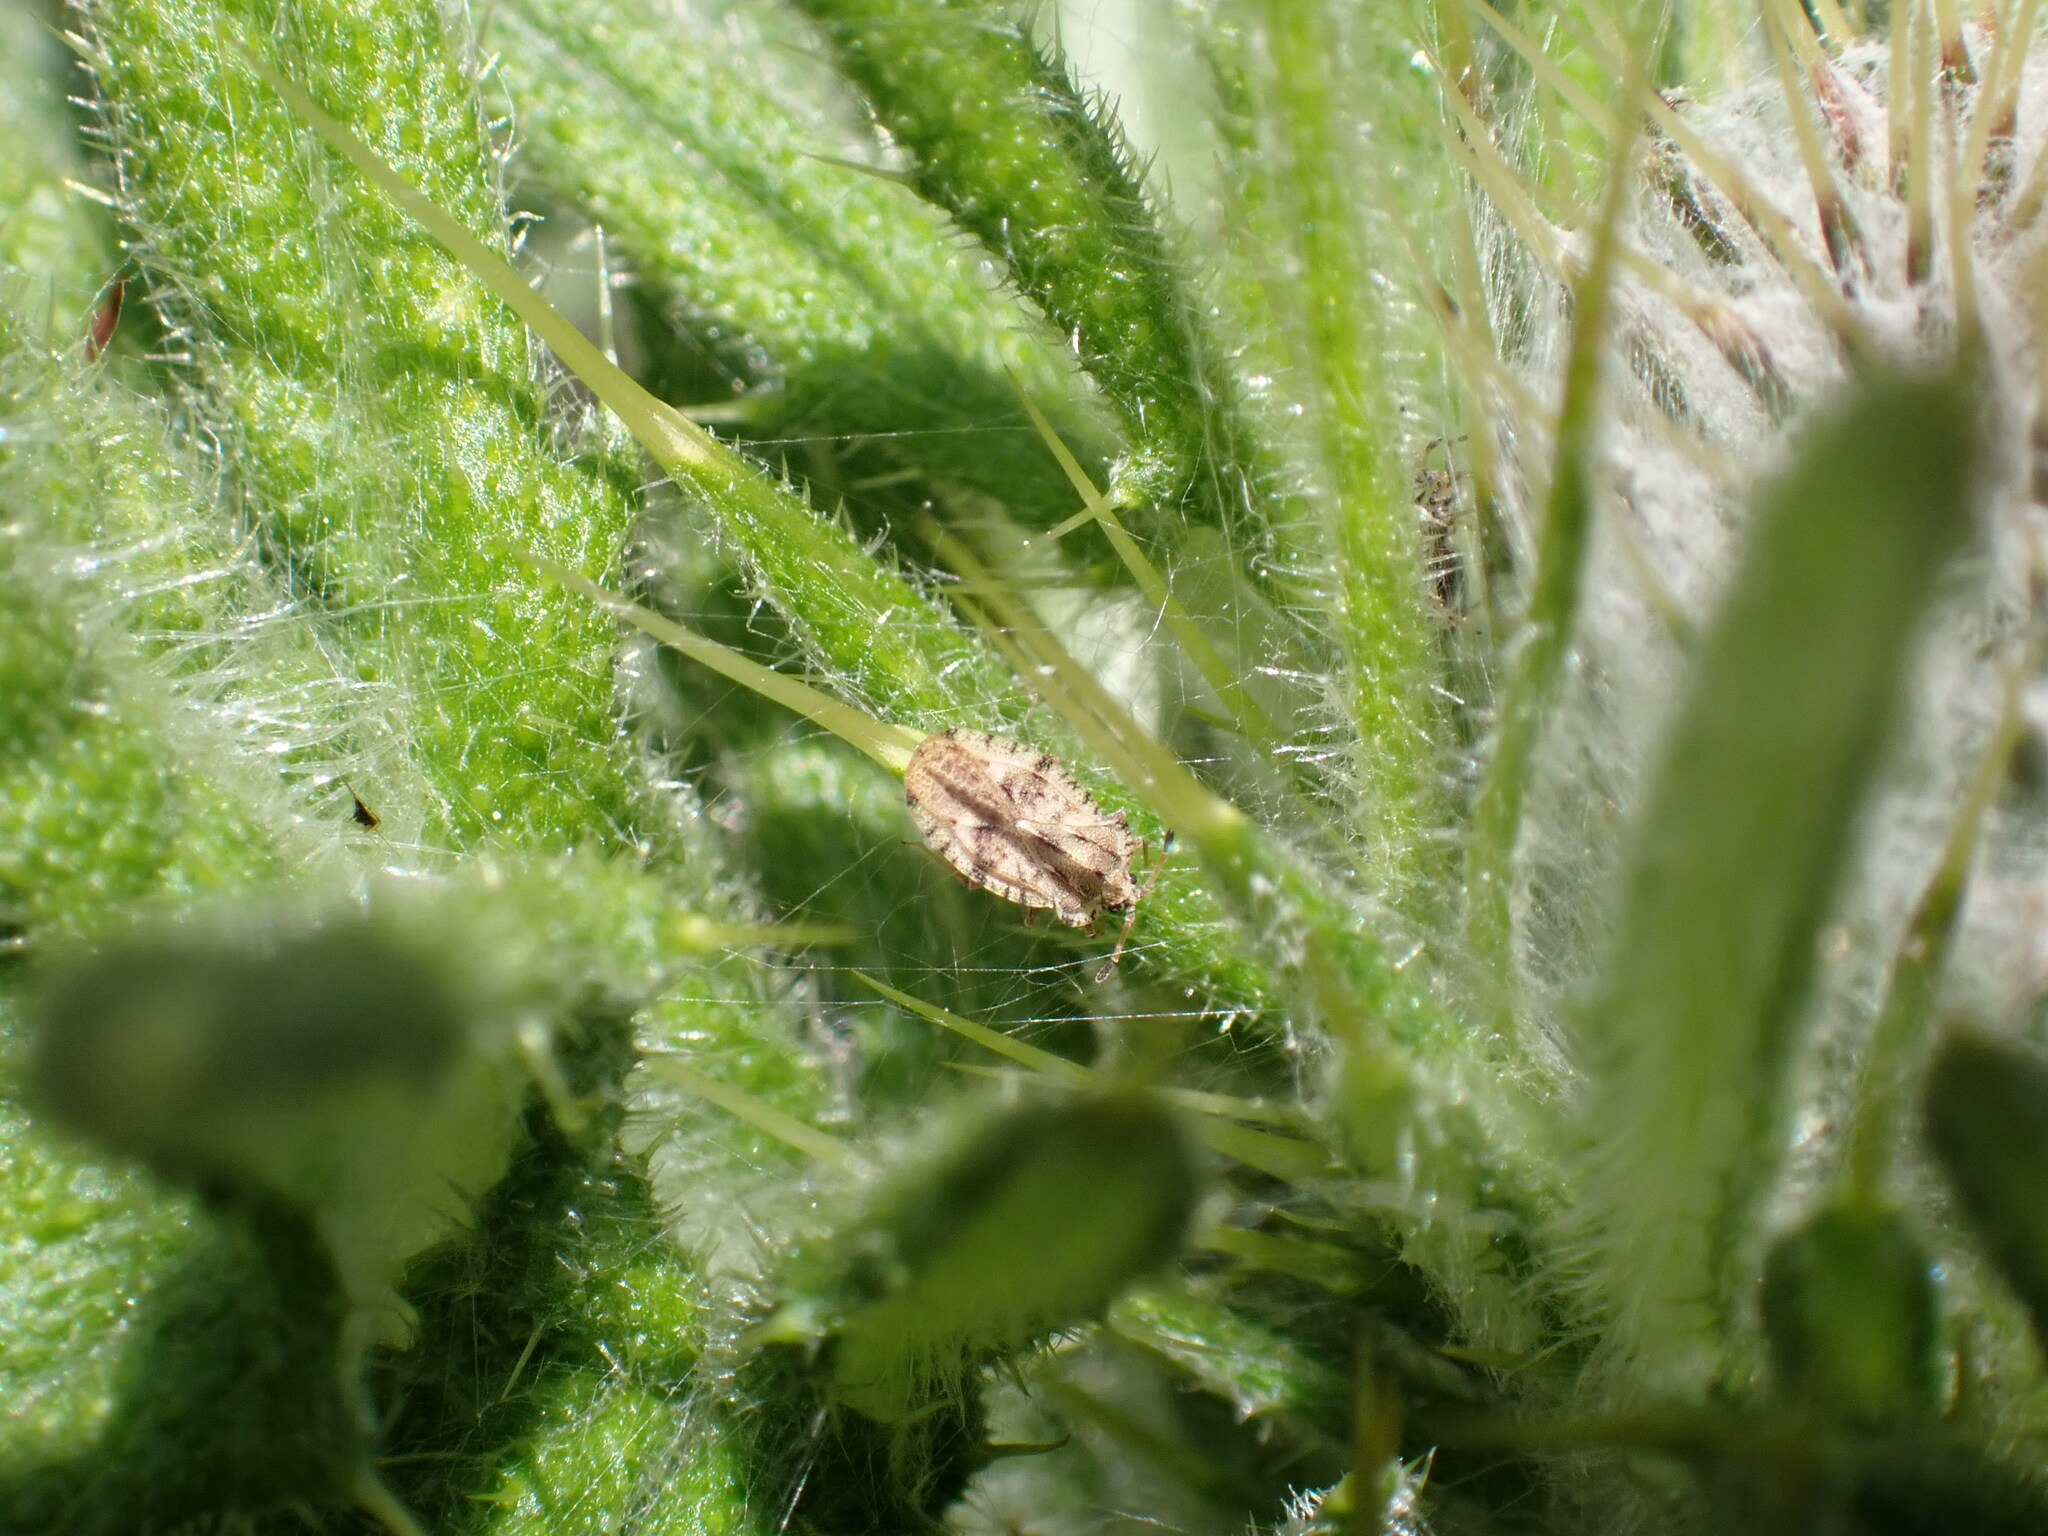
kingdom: Animalia
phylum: Arthropoda
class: Insecta
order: Hemiptera
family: Tingidae
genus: Tingis
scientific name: Tingis cardui
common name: Spear thistle lacebug
